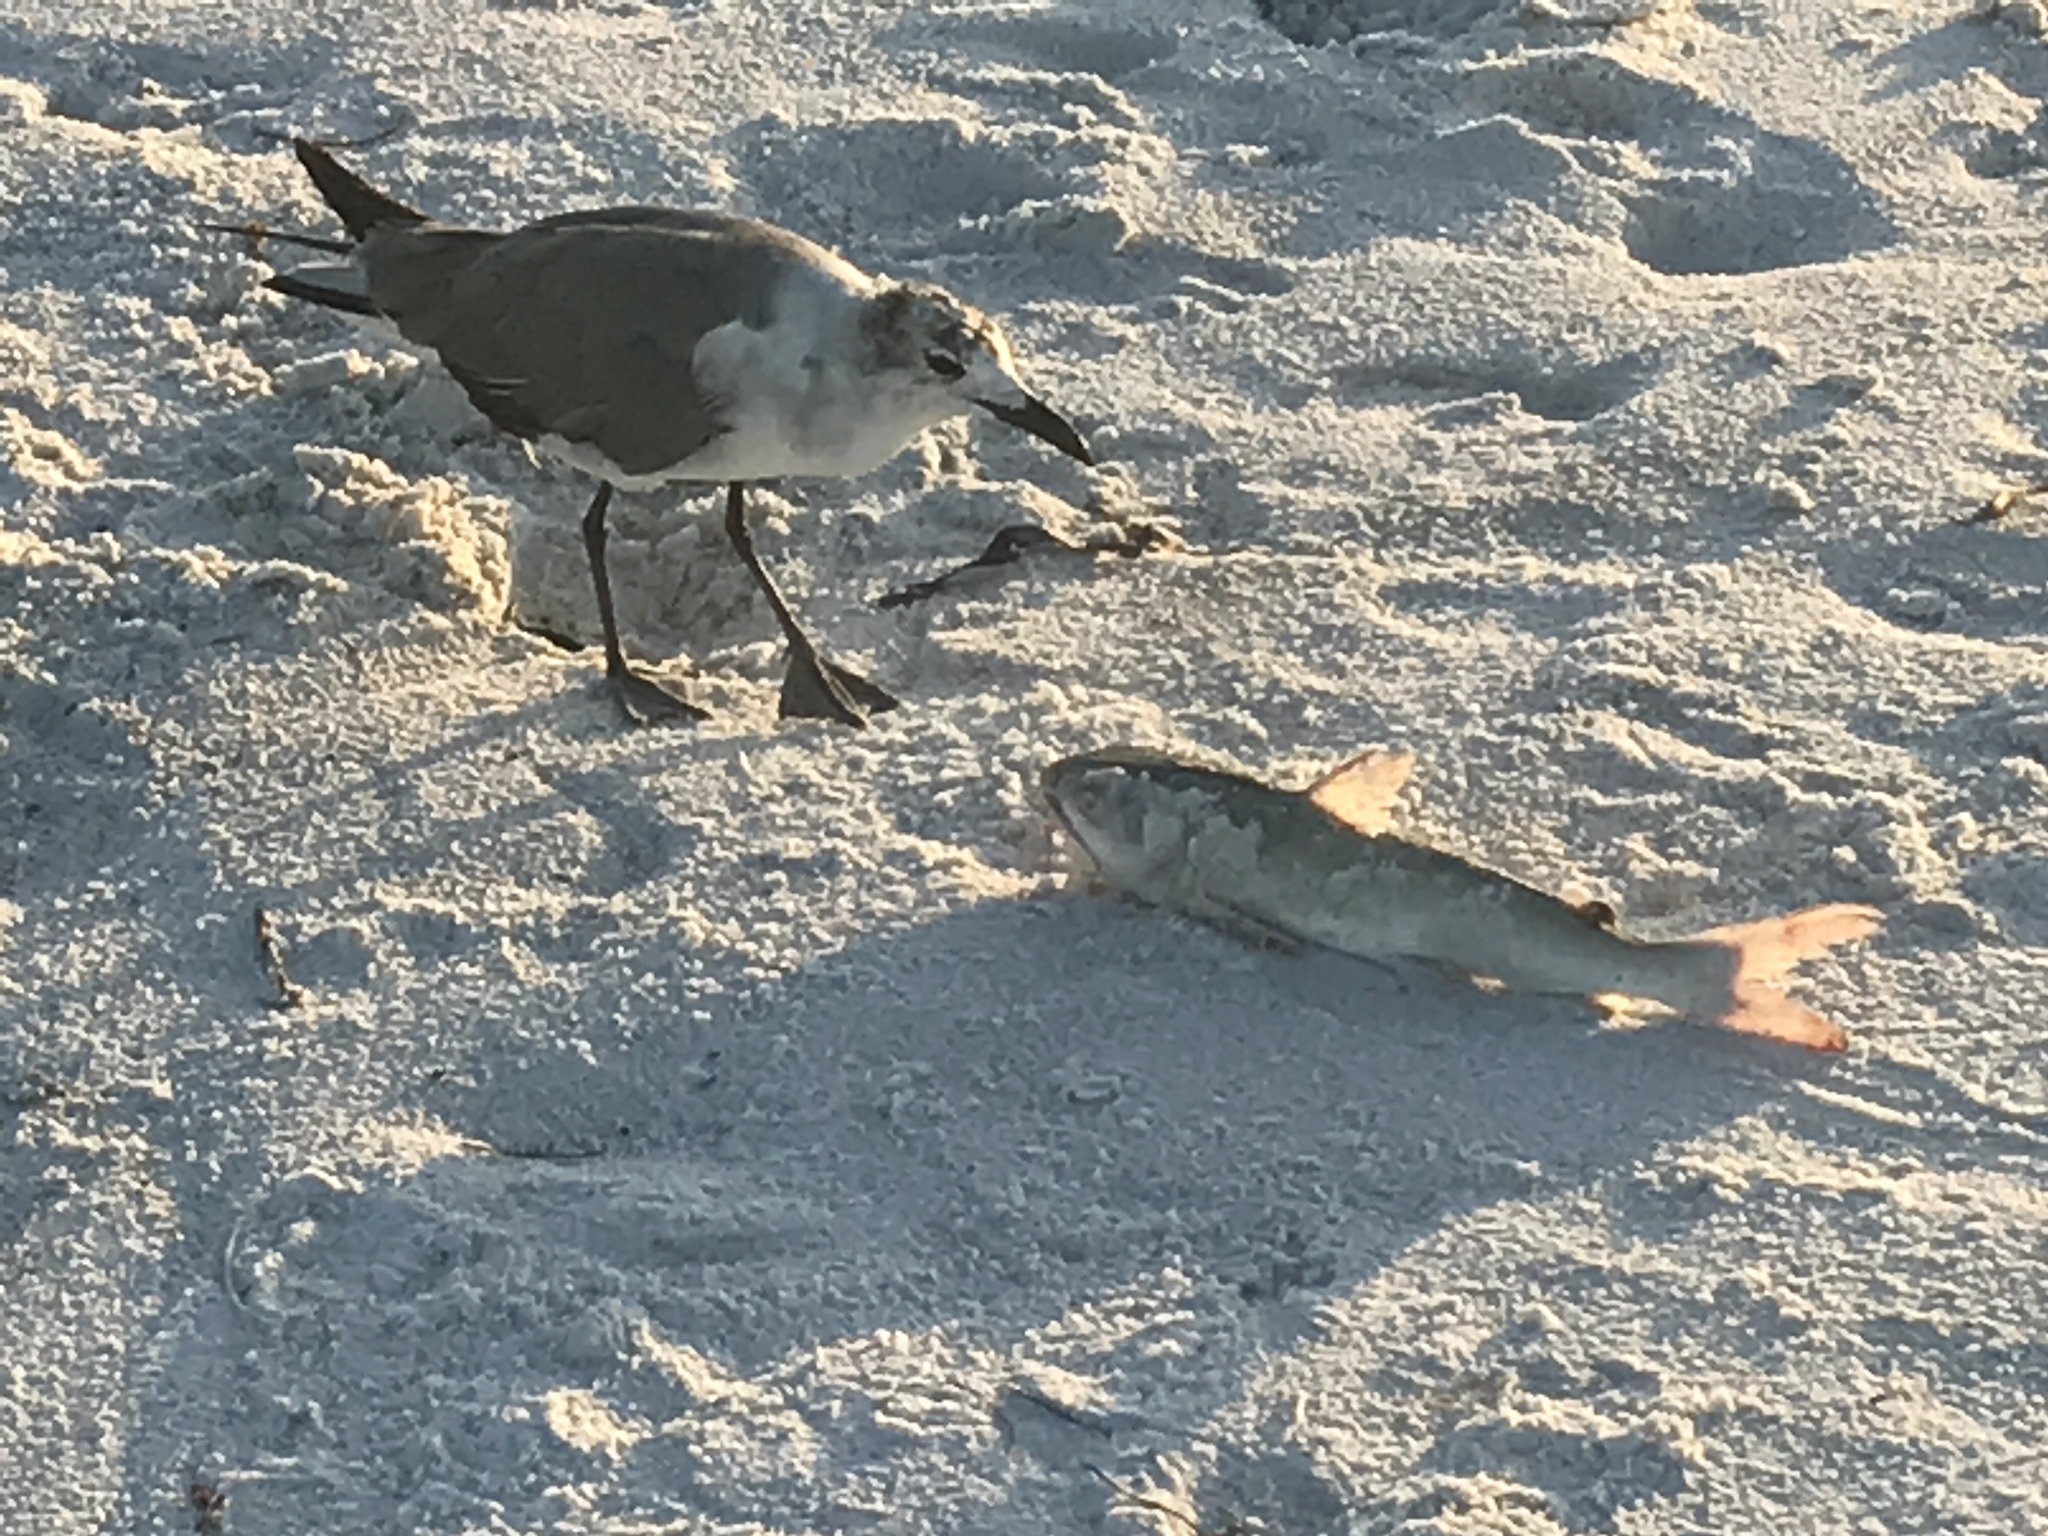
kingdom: Animalia
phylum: Chordata
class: Aves
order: Charadriiformes
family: Laridae
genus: Leucophaeus
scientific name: Leucophaeus atricilla
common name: Laughing gull
